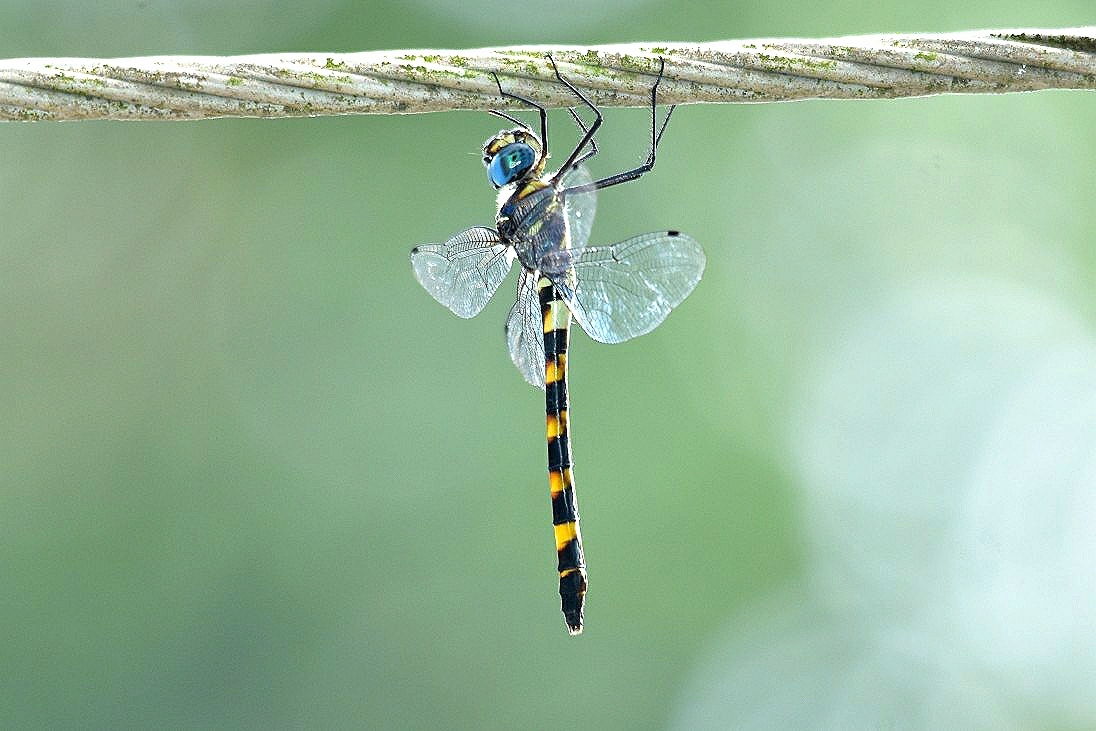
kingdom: Animalia
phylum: Arthropoda
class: Insecta
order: Odonata
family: Macromiidae
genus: Epophthalmia
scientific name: Epophthalmia vittata
